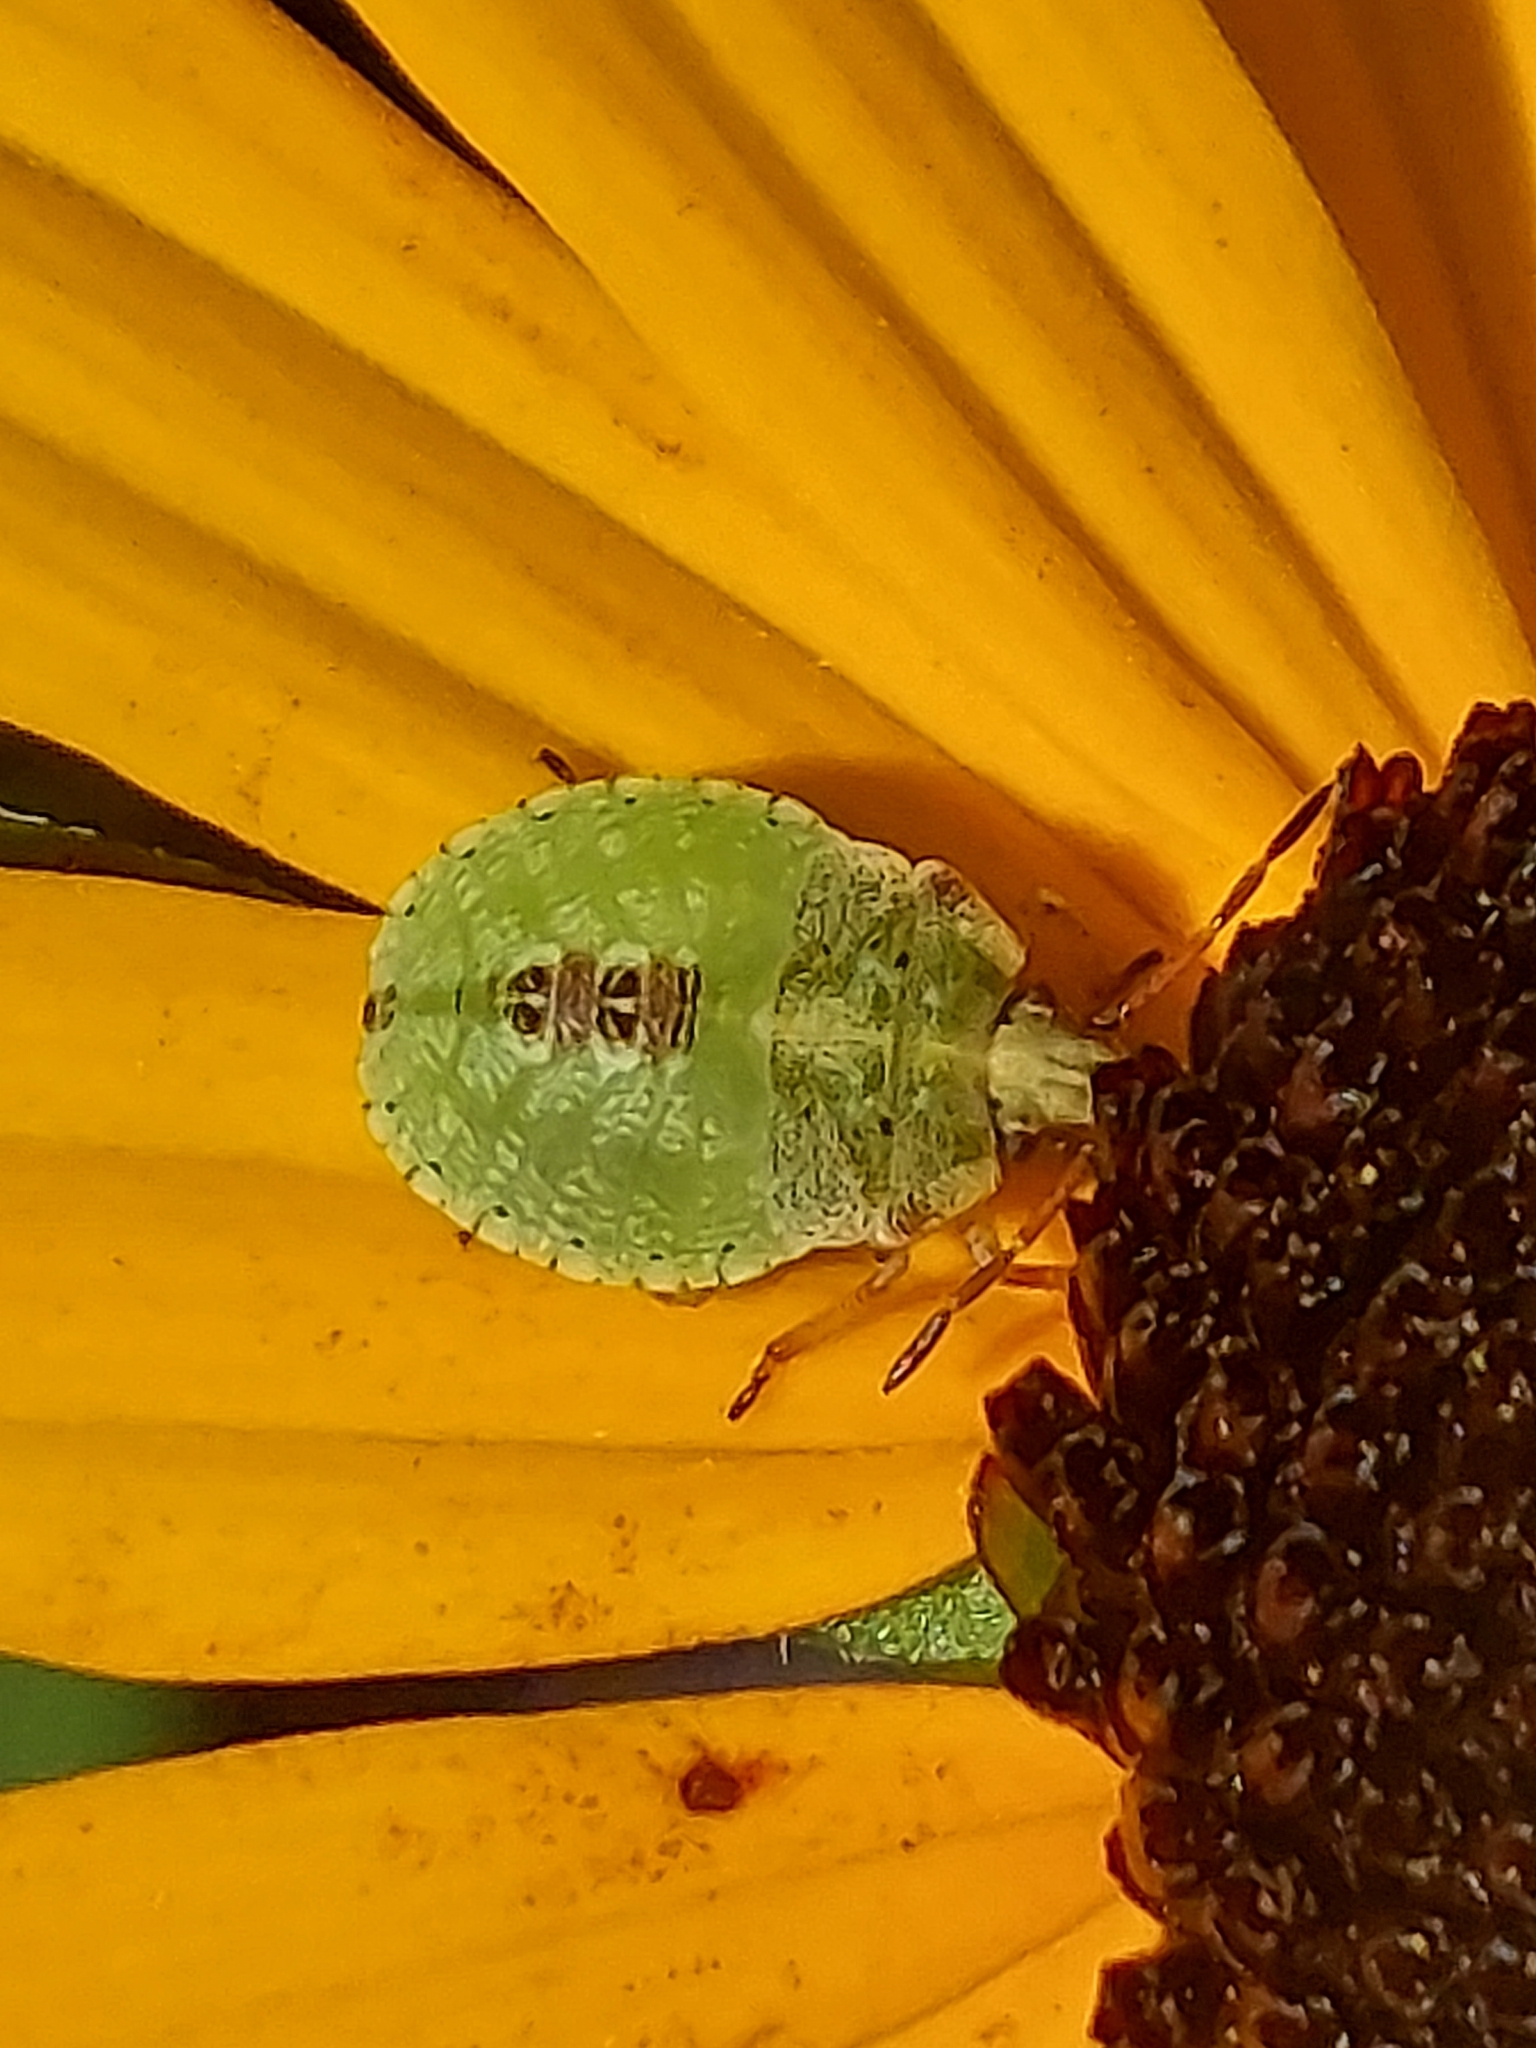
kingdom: Animalia
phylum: Arthropoda
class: Insecta
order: Hemiptera
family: Pentatomidae
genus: Euschistus
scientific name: Euschistus servus
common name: Brown stink bug
